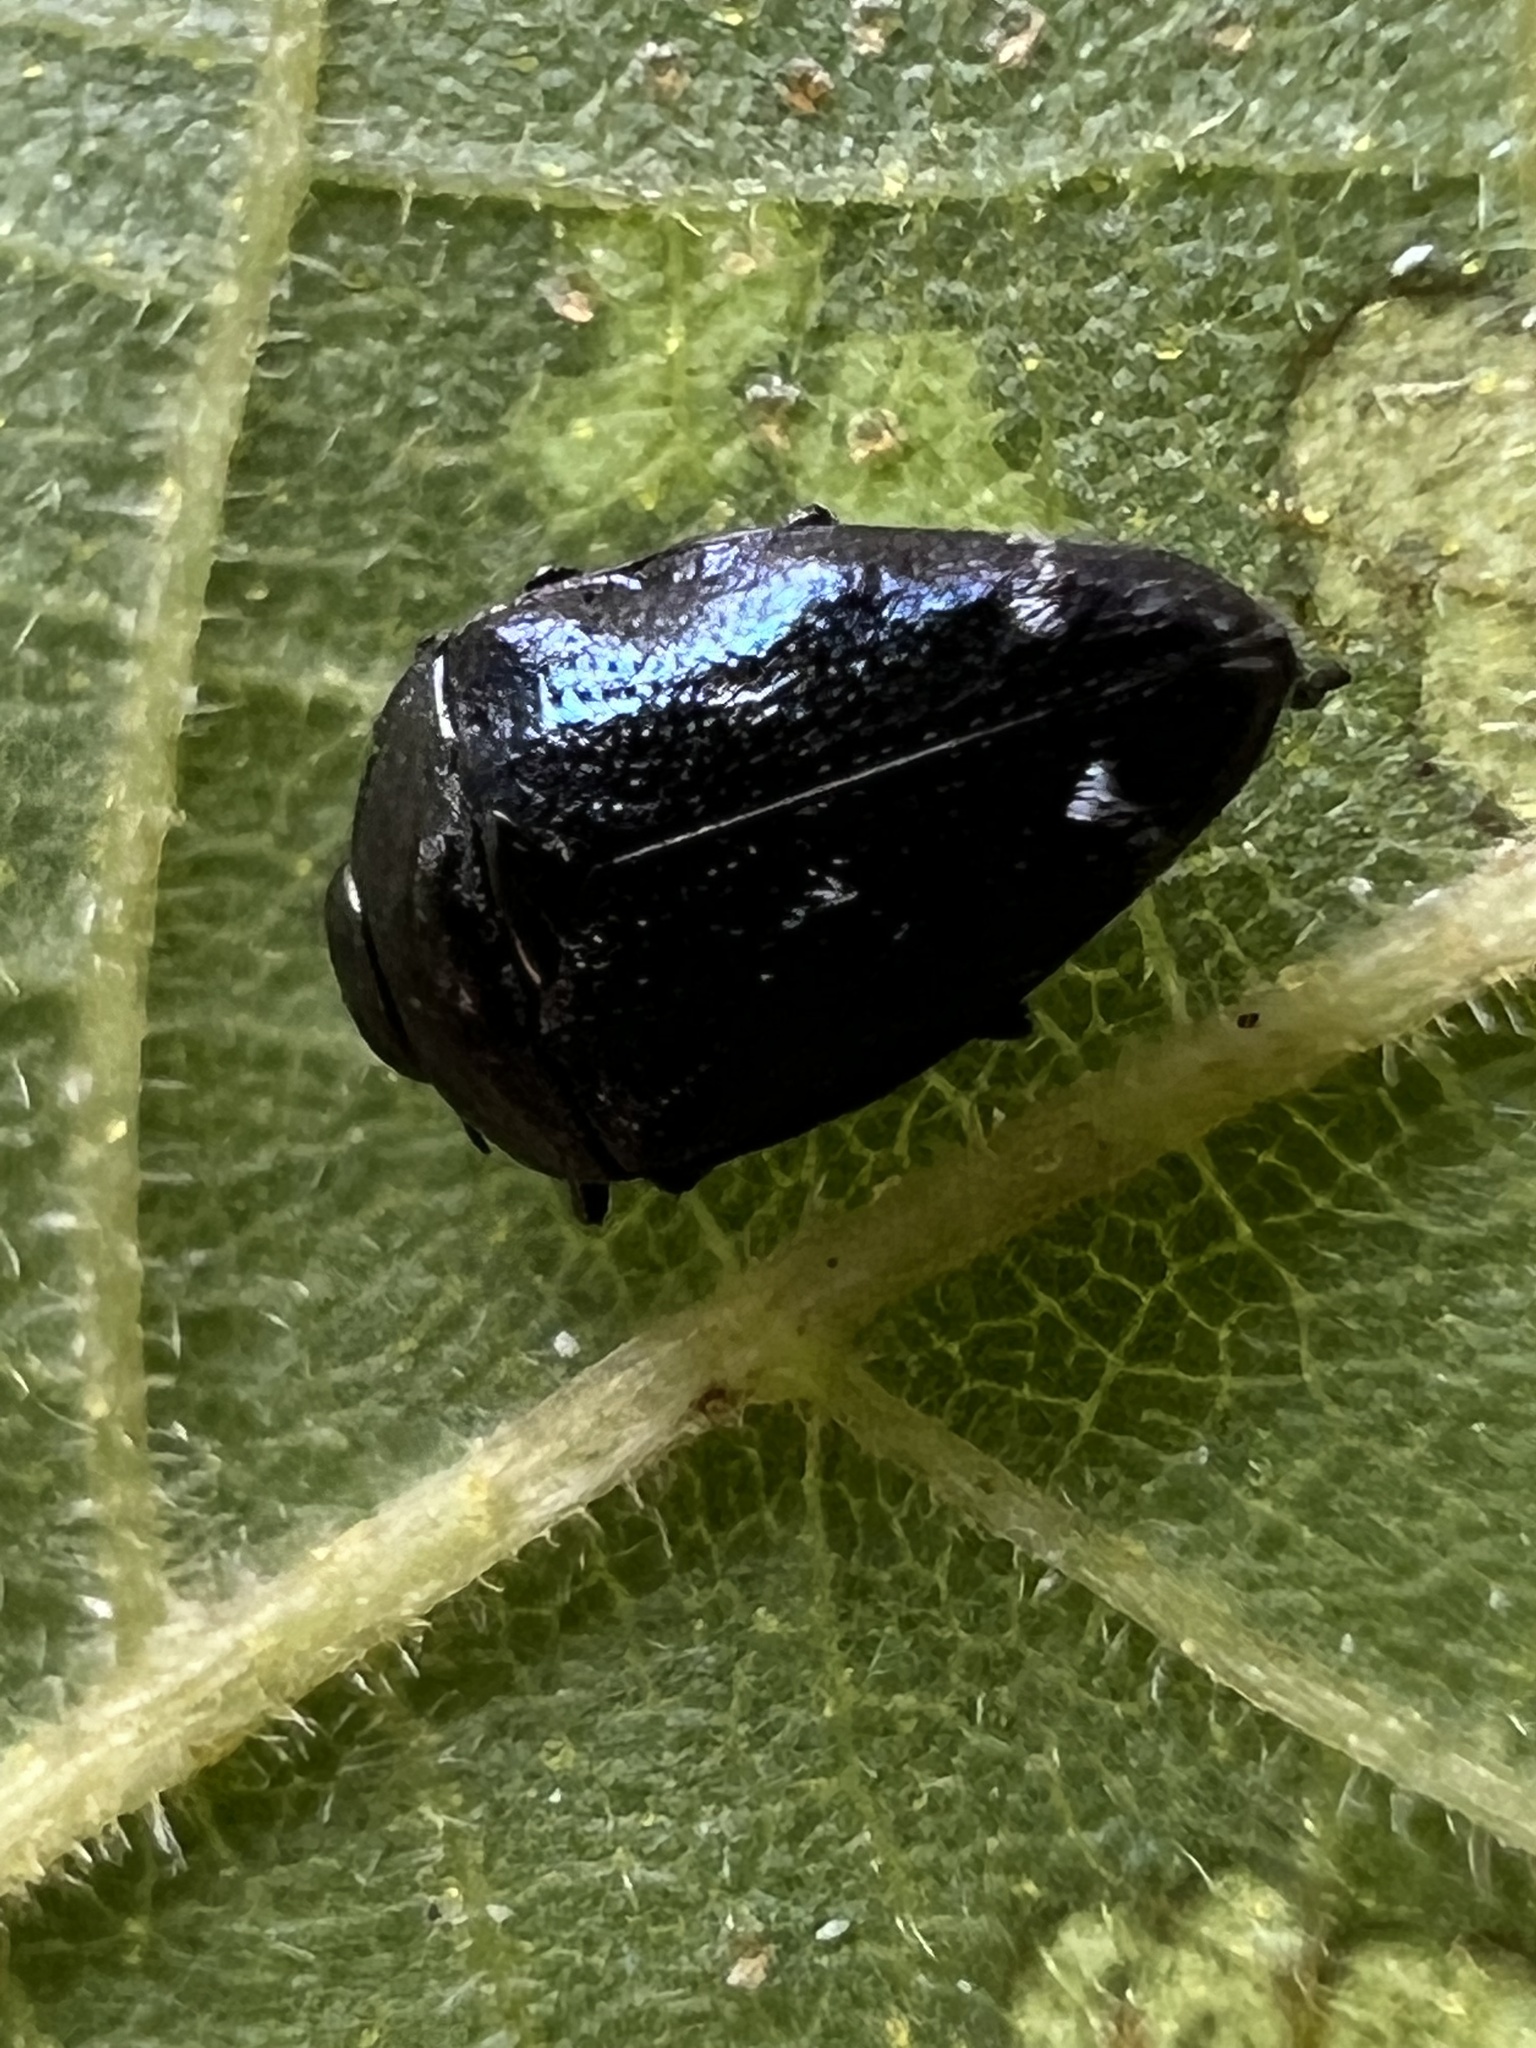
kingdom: Animalia
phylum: Arthropoda
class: Insecta
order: Coleoptera
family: Buprestidae
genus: Pachyschelus
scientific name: Pachyschelus purpureus
